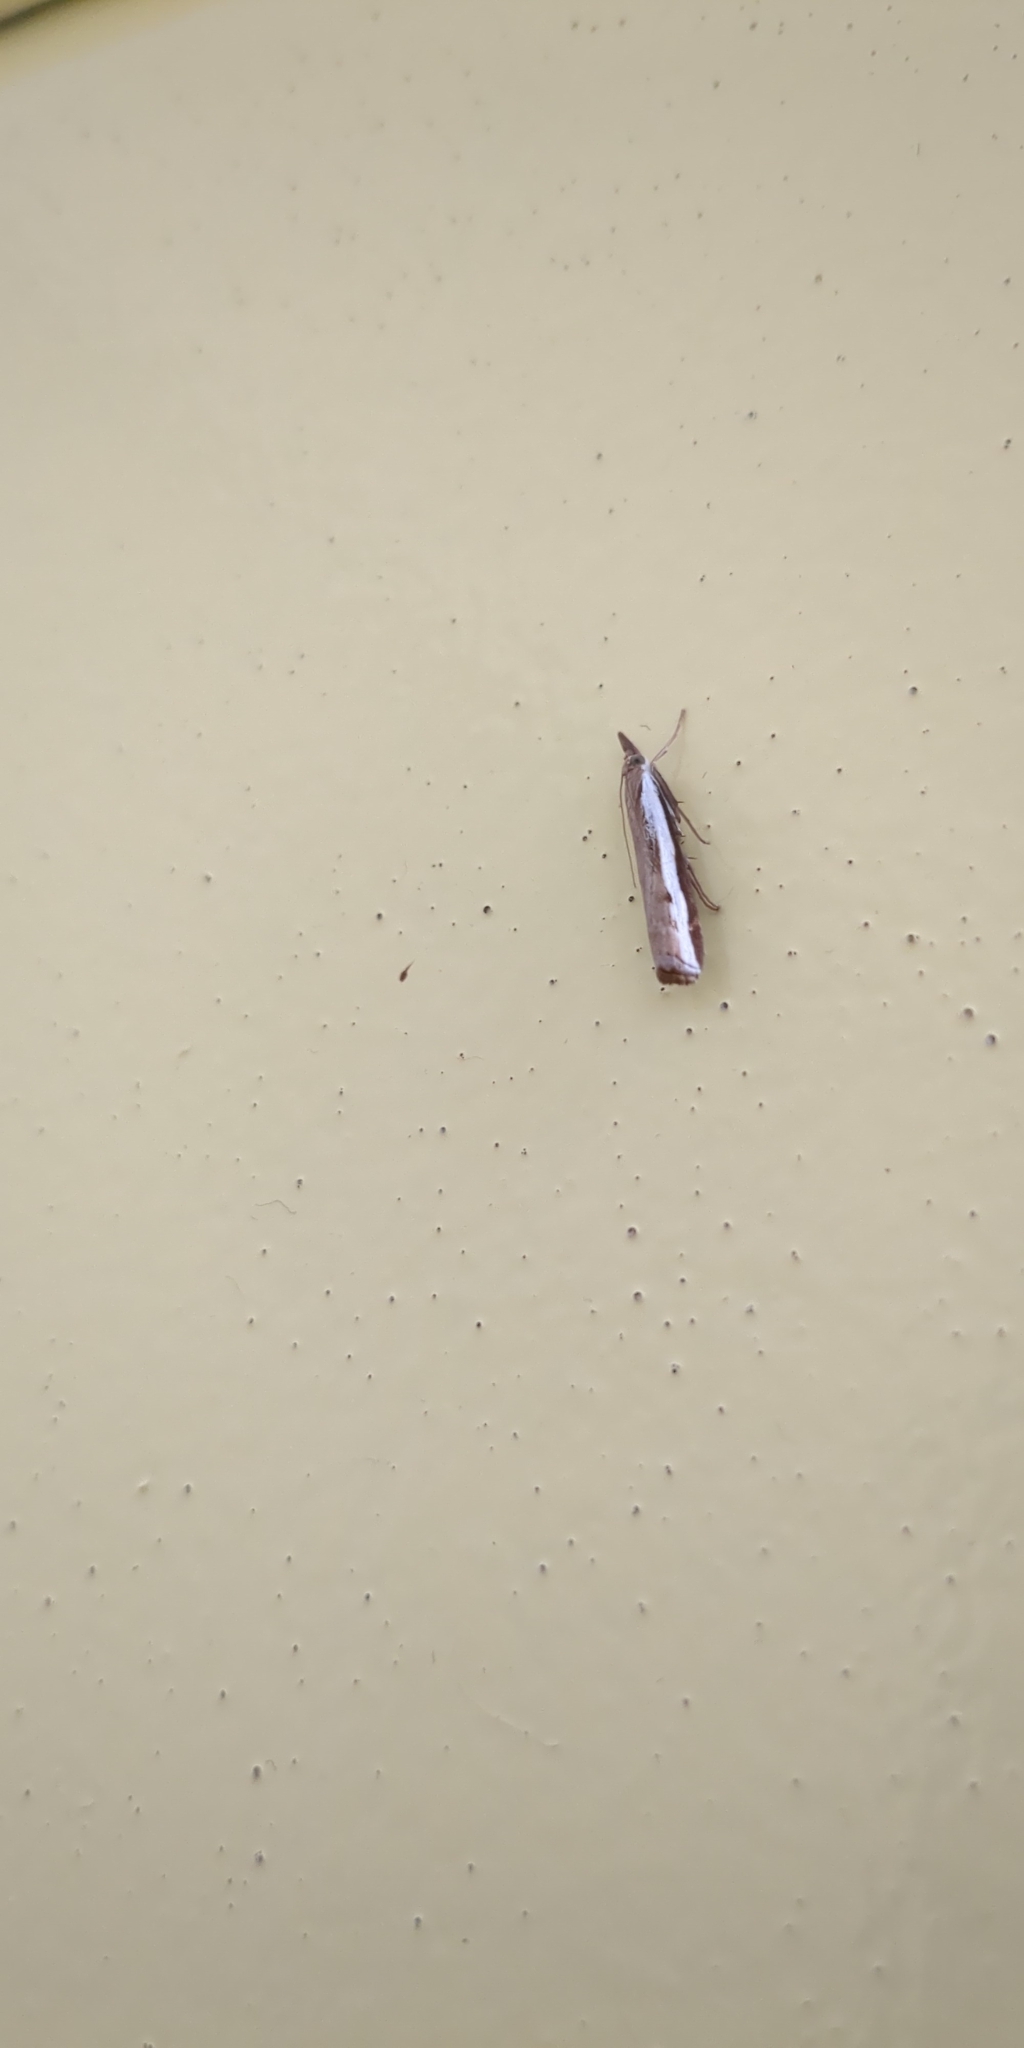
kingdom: Animalia
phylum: Arthropoda
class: Insecta
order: Lepidoptera
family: Crambidae
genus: Orocrambus
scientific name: Orocrambus flexuosellus
